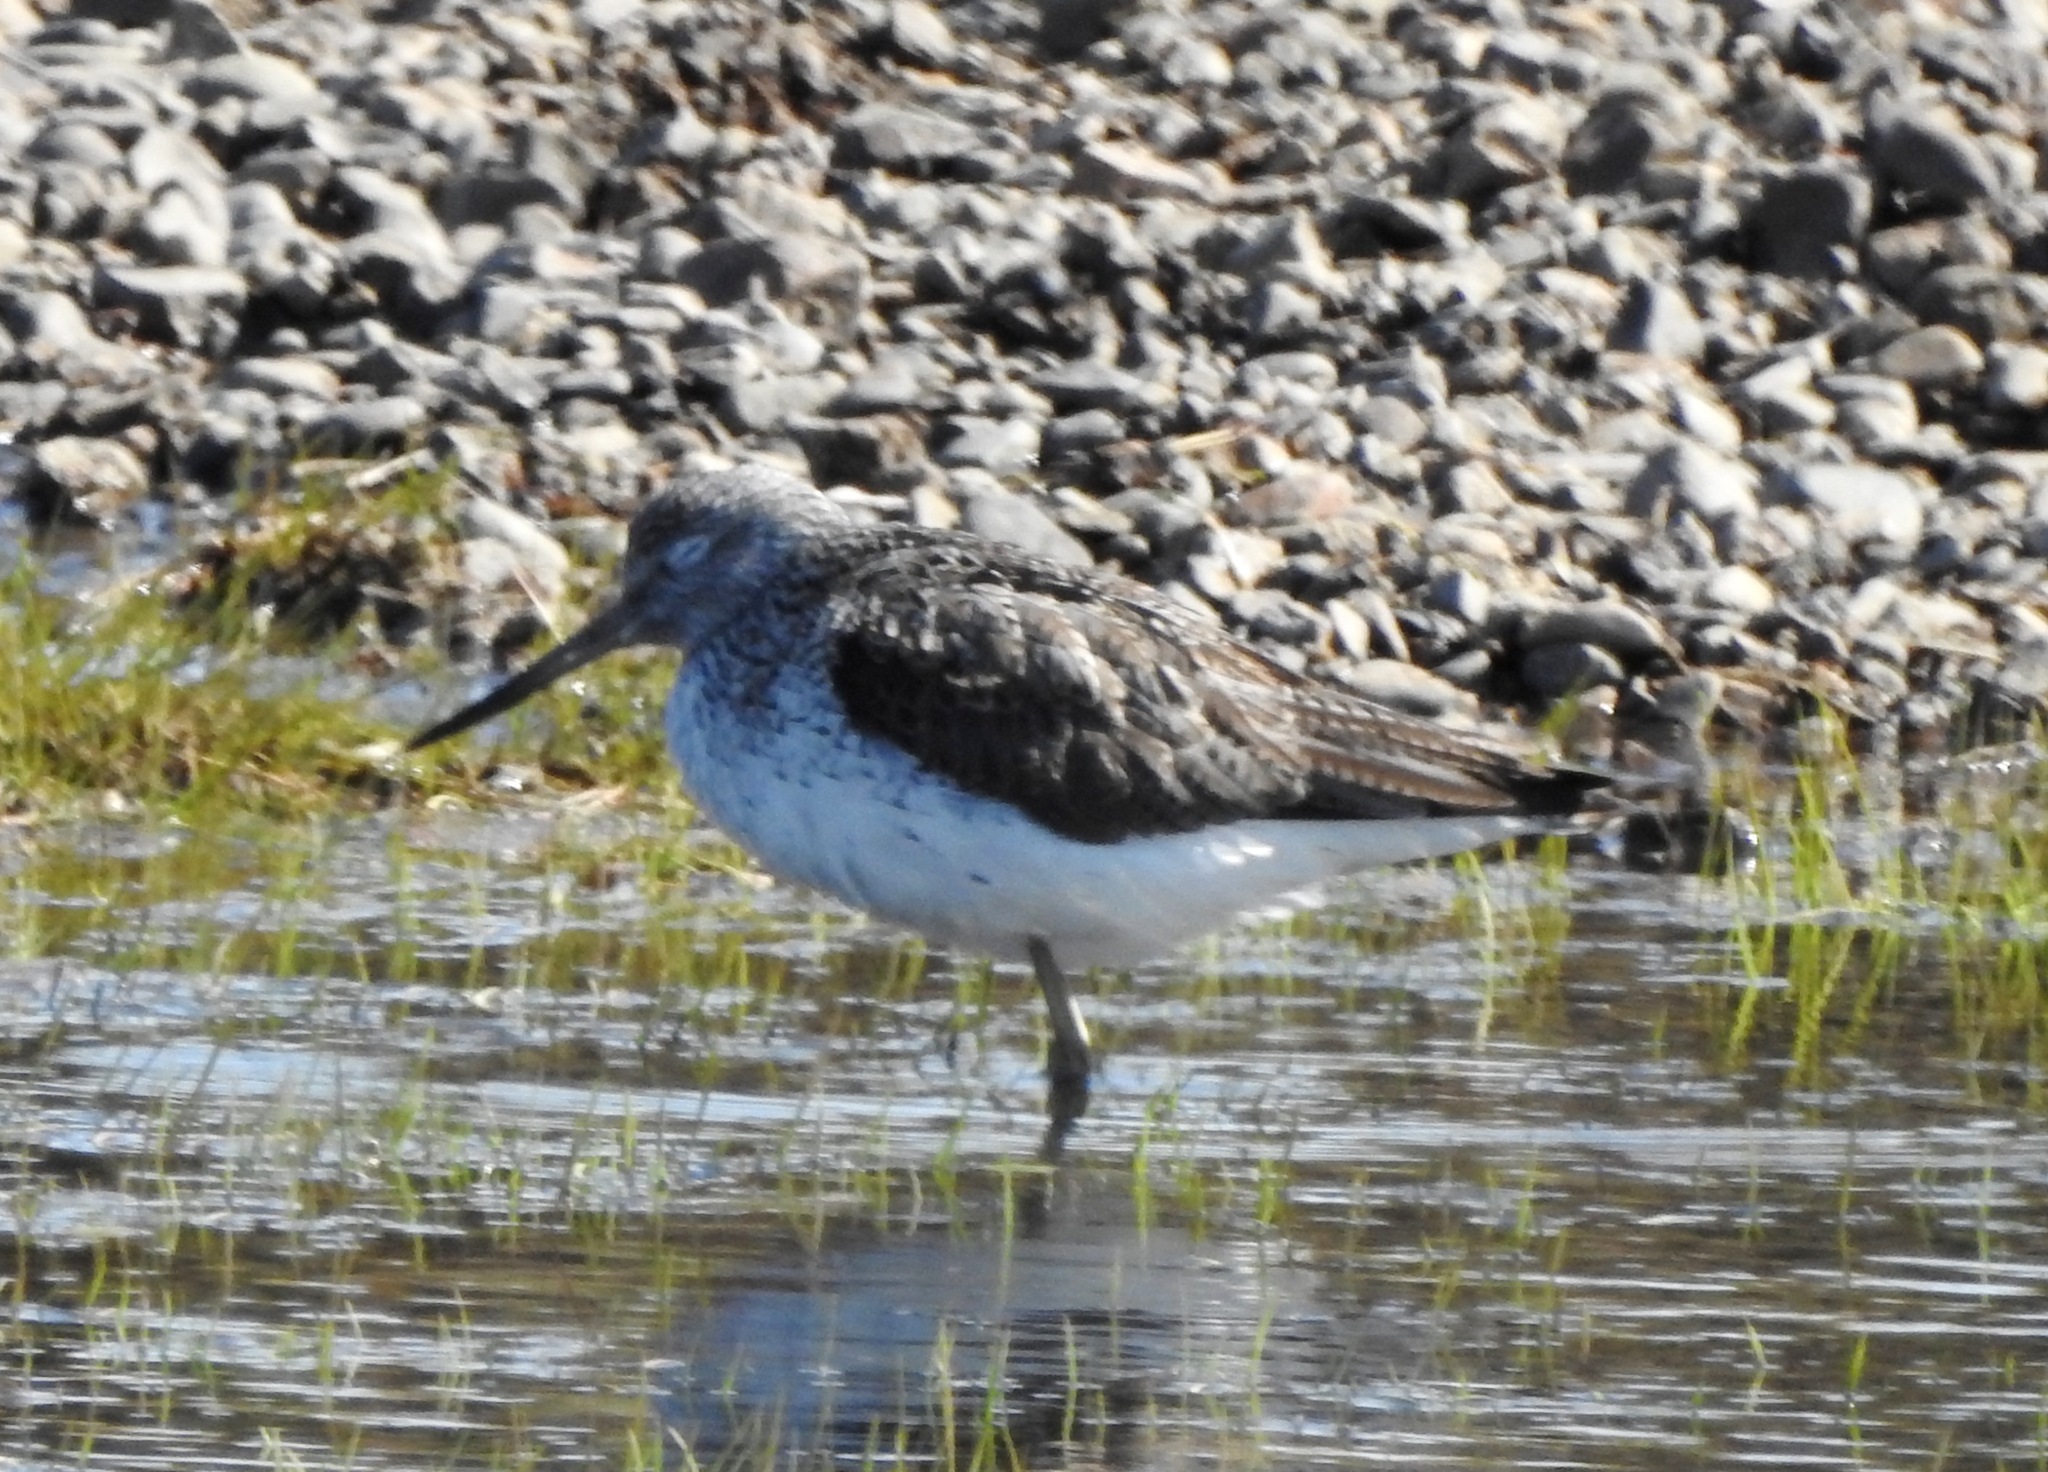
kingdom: Animalia
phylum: Chordata
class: Aves
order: Charadriiformes
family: Scolopacidae
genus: Tringa
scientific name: Tringa nebularia
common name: Common greenshank
